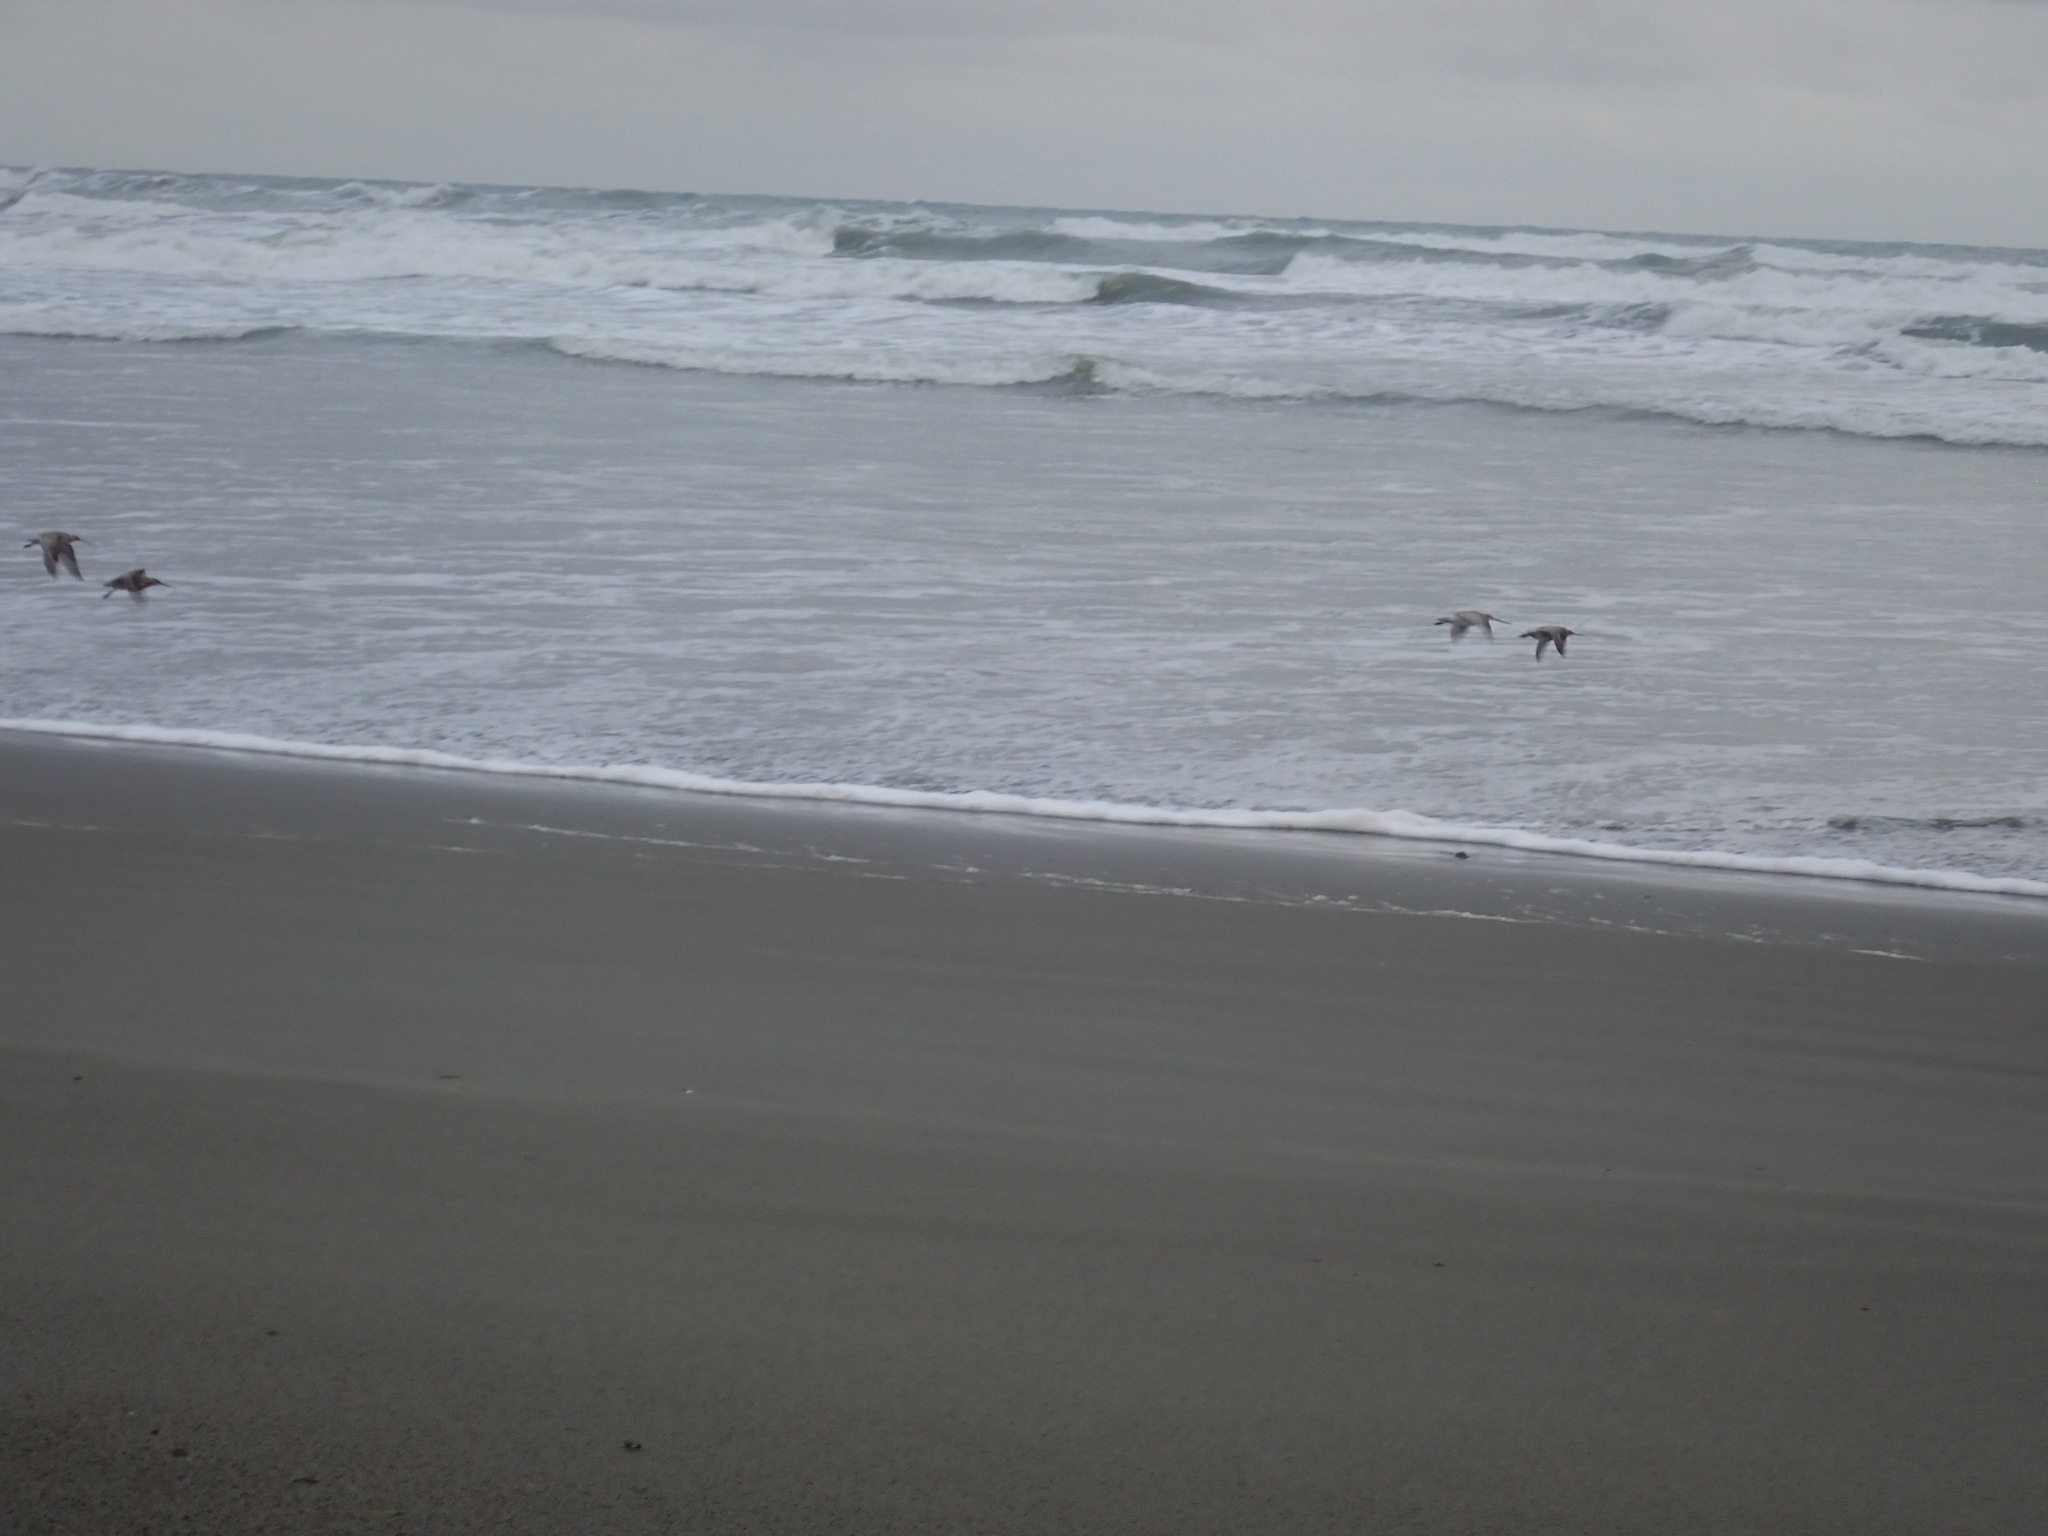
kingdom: Animalia
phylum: Chordata
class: Aves
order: Charadriiformes
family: Scolopacidae
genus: Limosa
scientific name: Limosa lapponica
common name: Bar-tailed godwit
